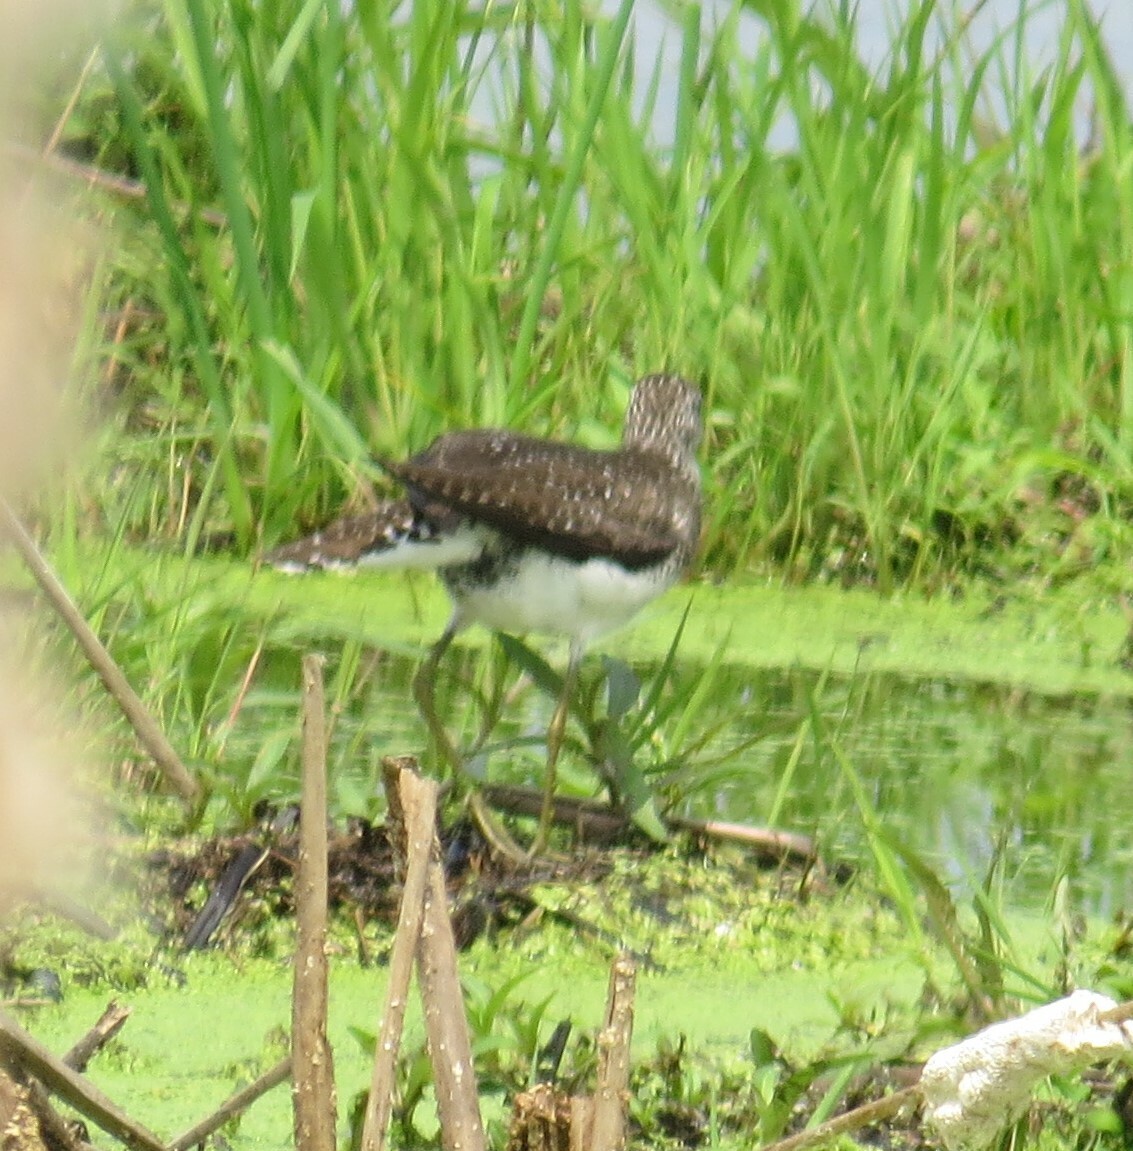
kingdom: Animalia
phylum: Chordata
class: Aves
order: Charadriiformes
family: Scolopacidae
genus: Tringa
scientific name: Tringa solitaria
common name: Solitary sandpiper
